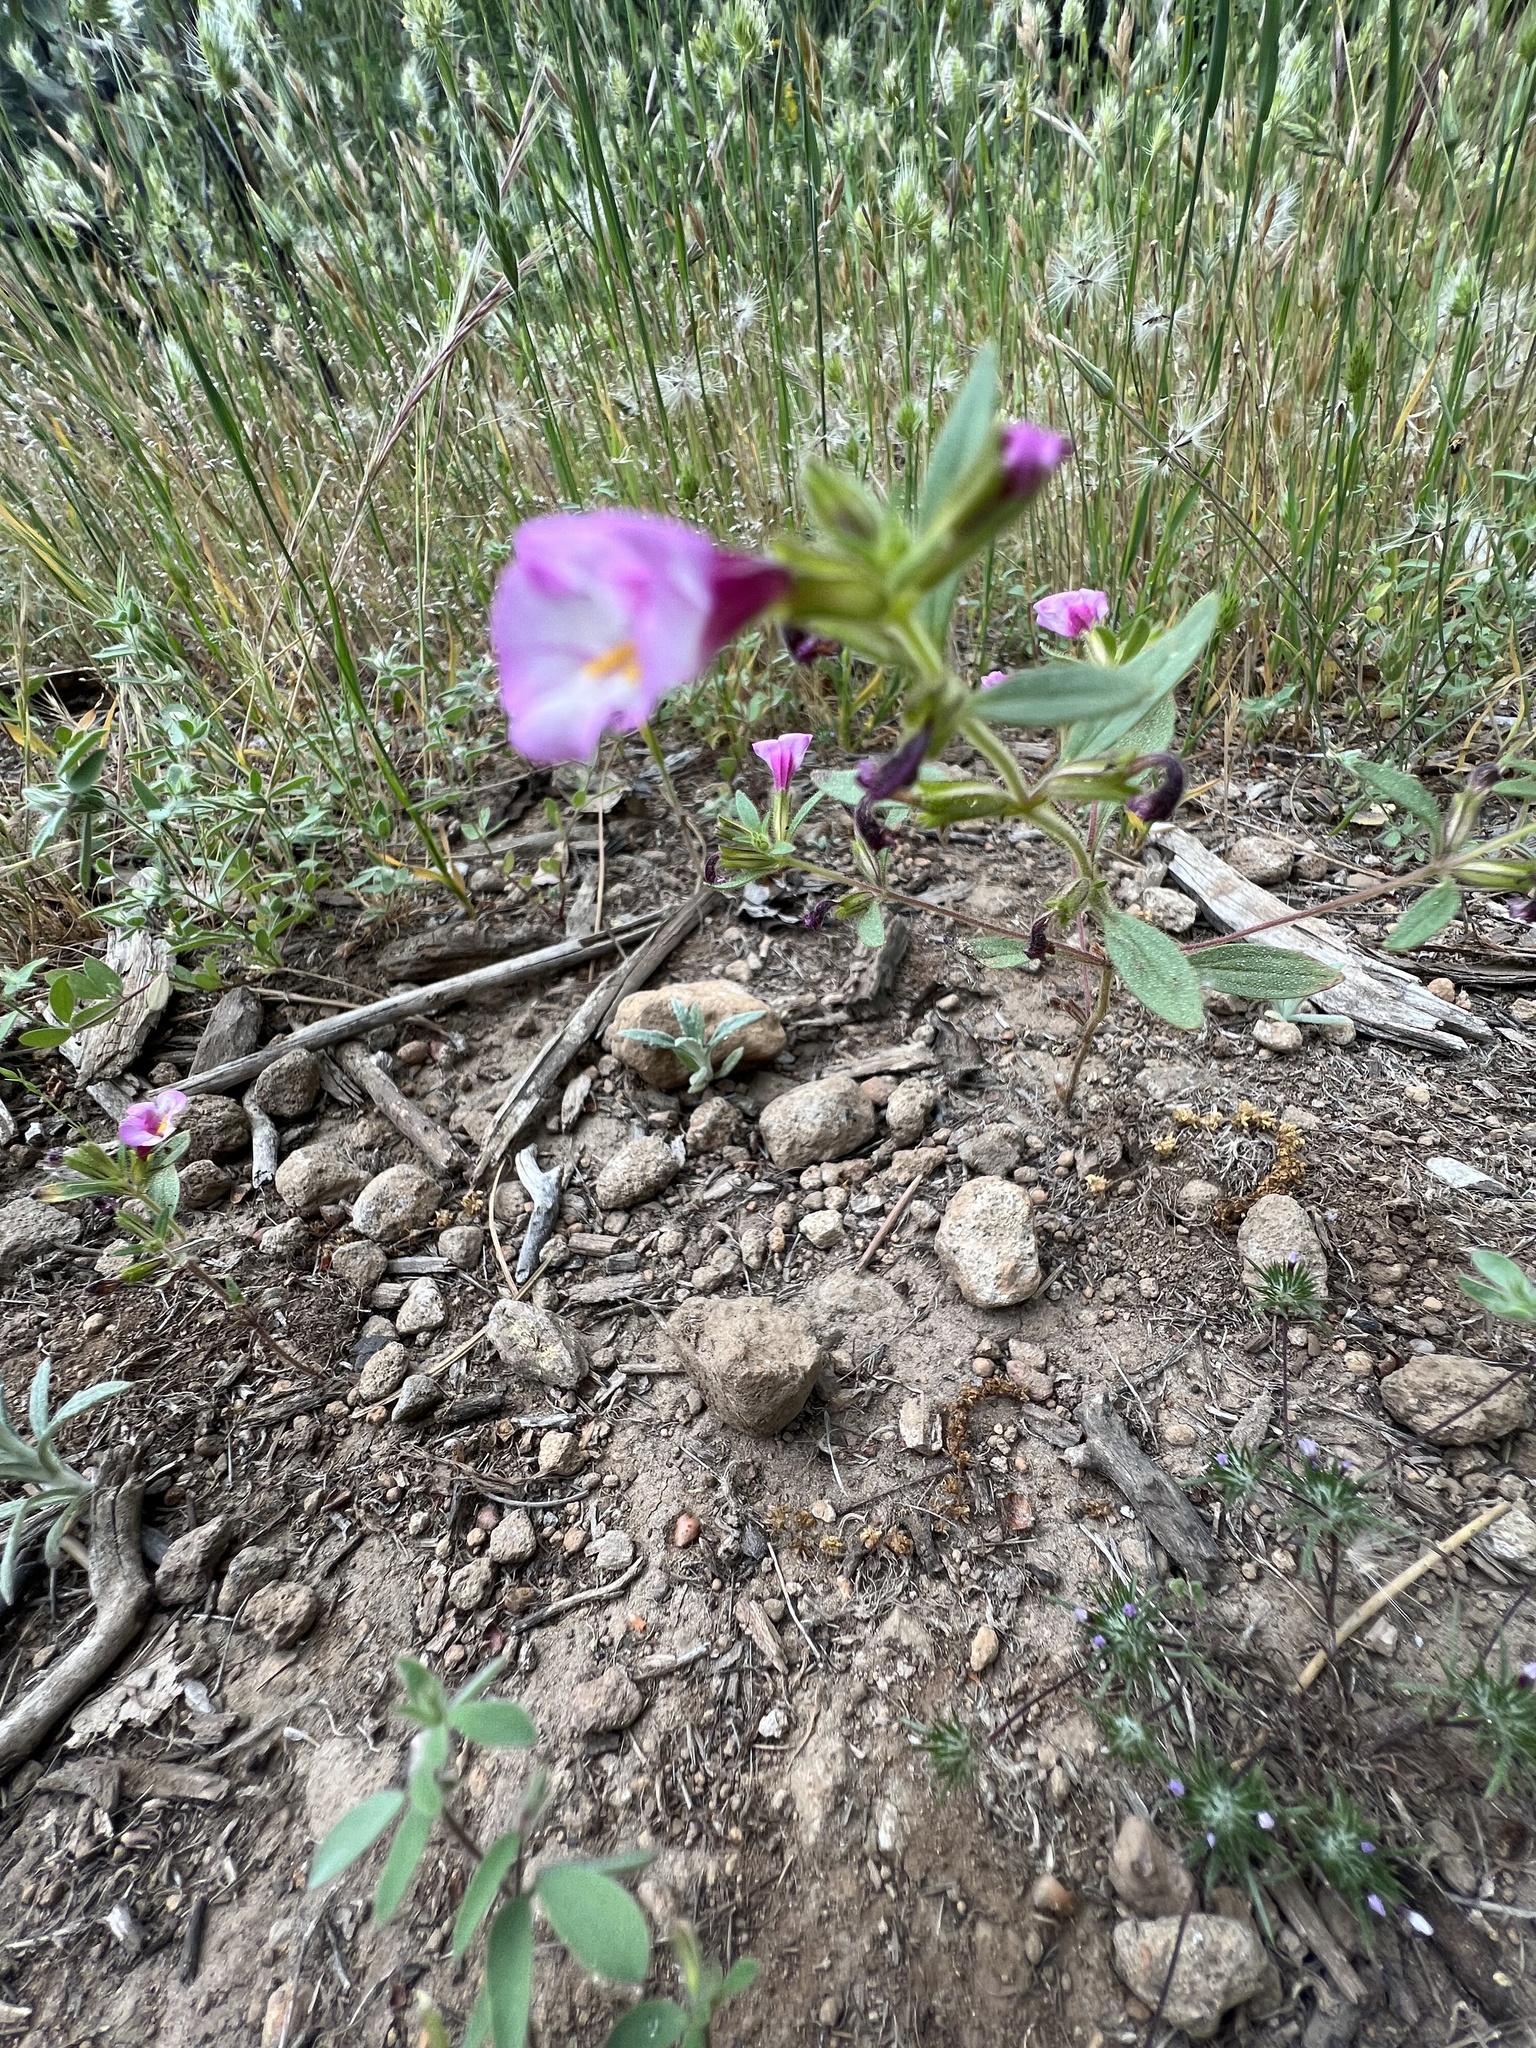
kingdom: Plantae
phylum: Tracheophyta
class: Magnoliopsida
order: Lamiales
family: Phrymaceae
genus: Diplacus
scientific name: Diplacus torreyi
